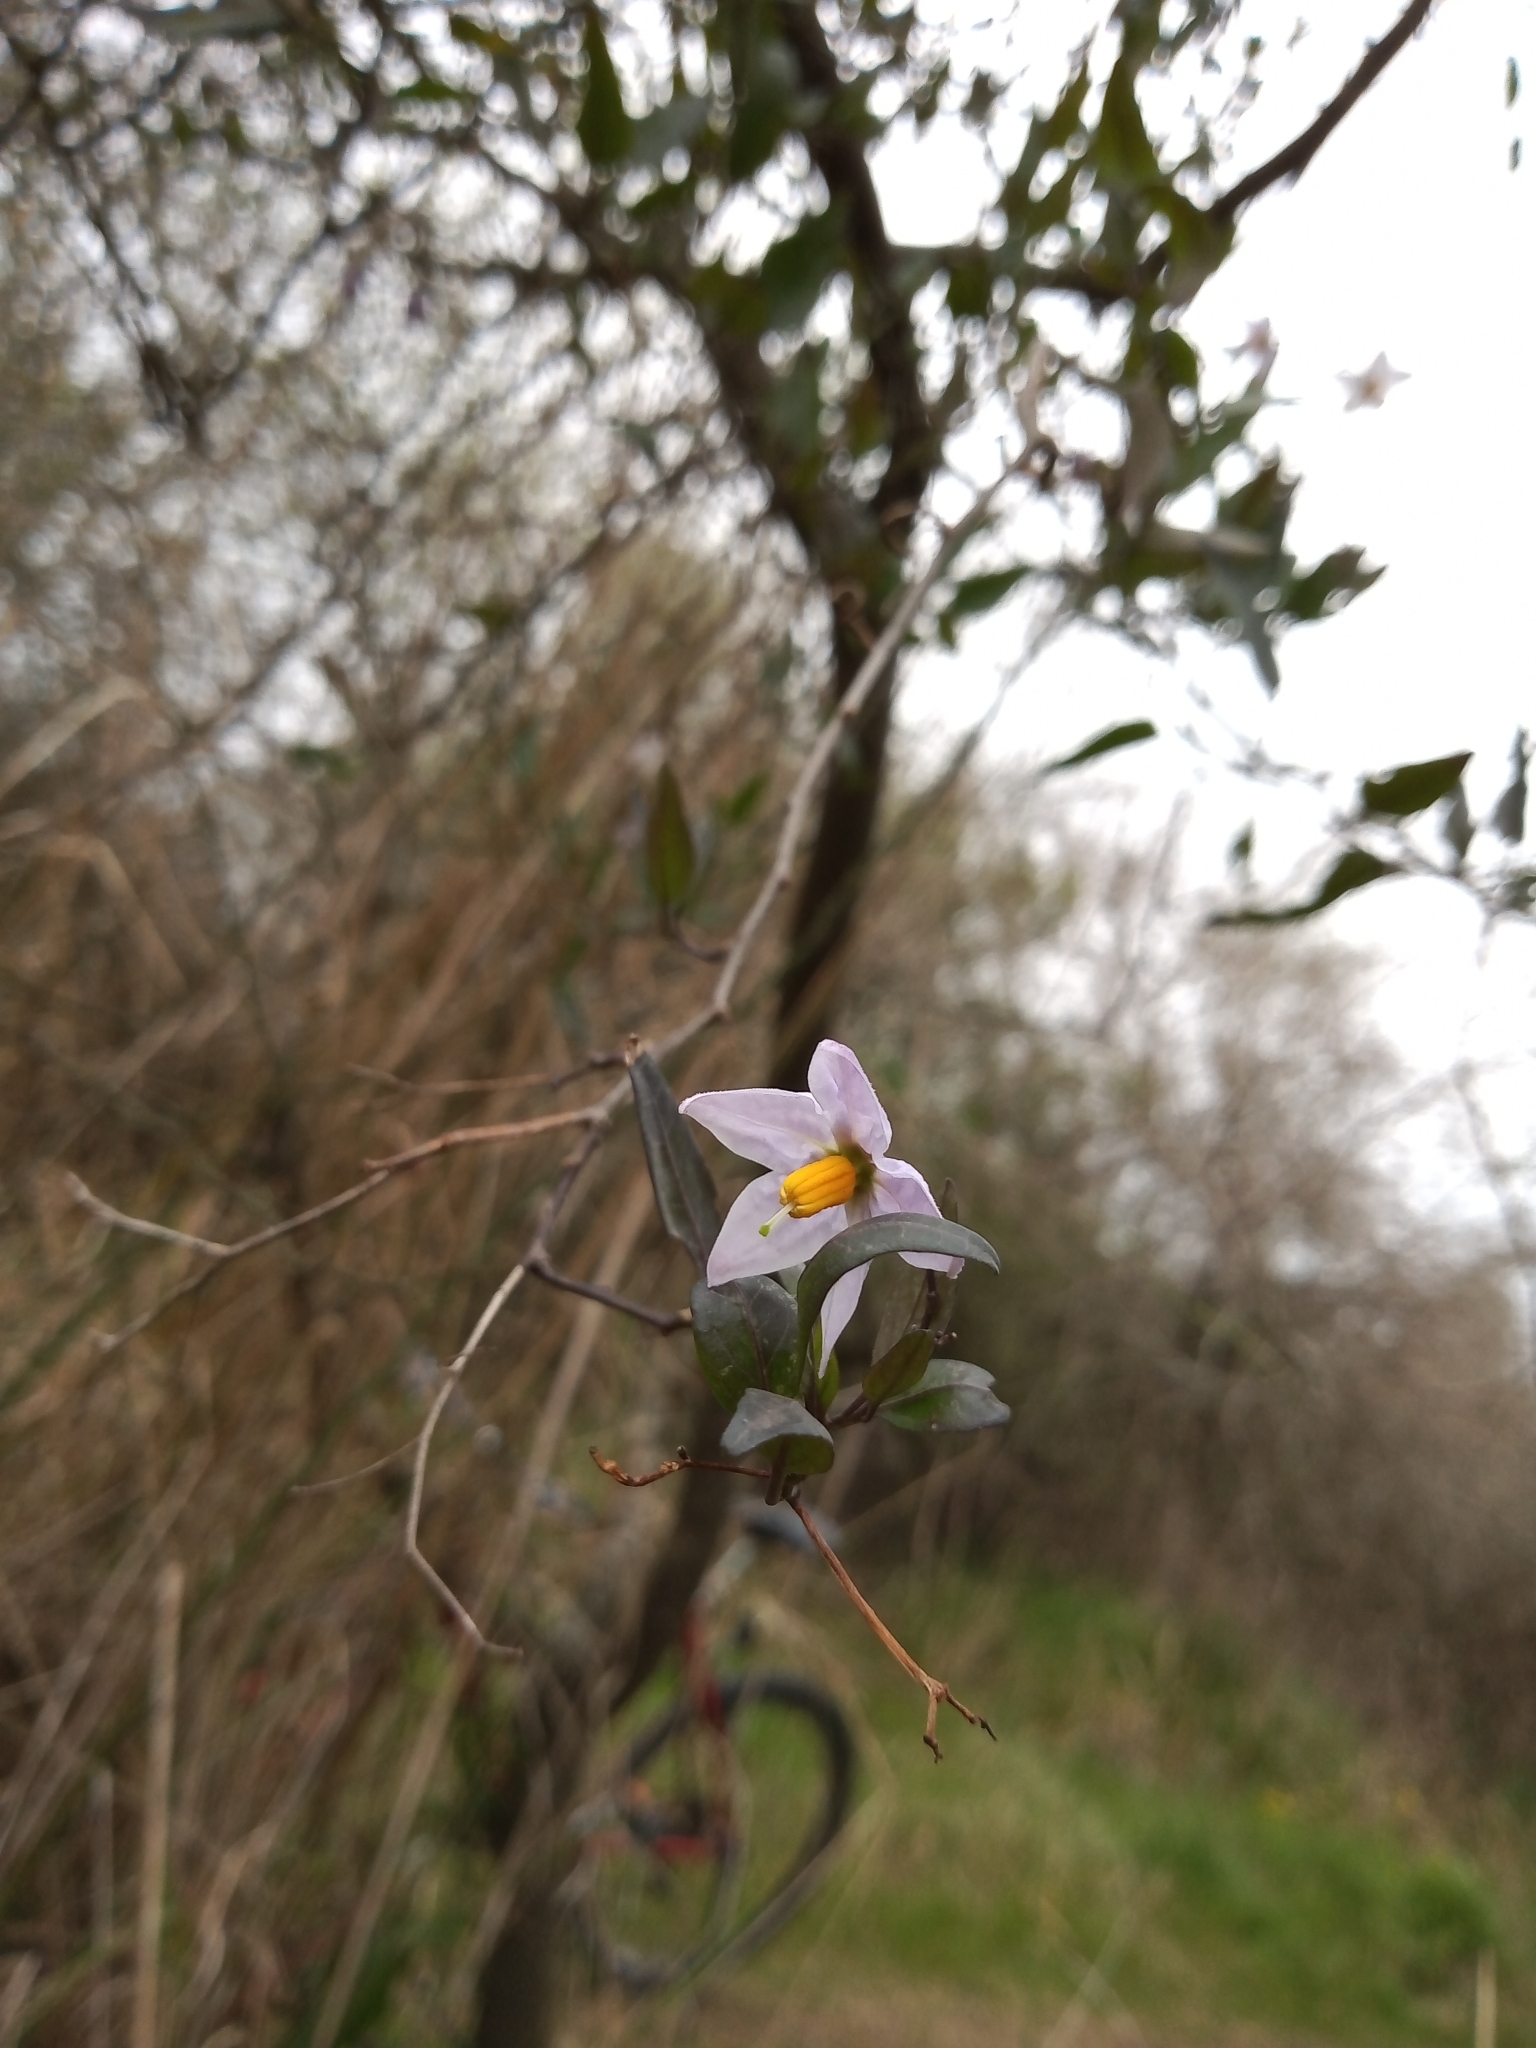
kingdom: Plantae
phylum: Tracheophyta
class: Magnoliopsida
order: Solanales
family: Solanaceae
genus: Solanum
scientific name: Solanum laxum
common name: Nightshade
